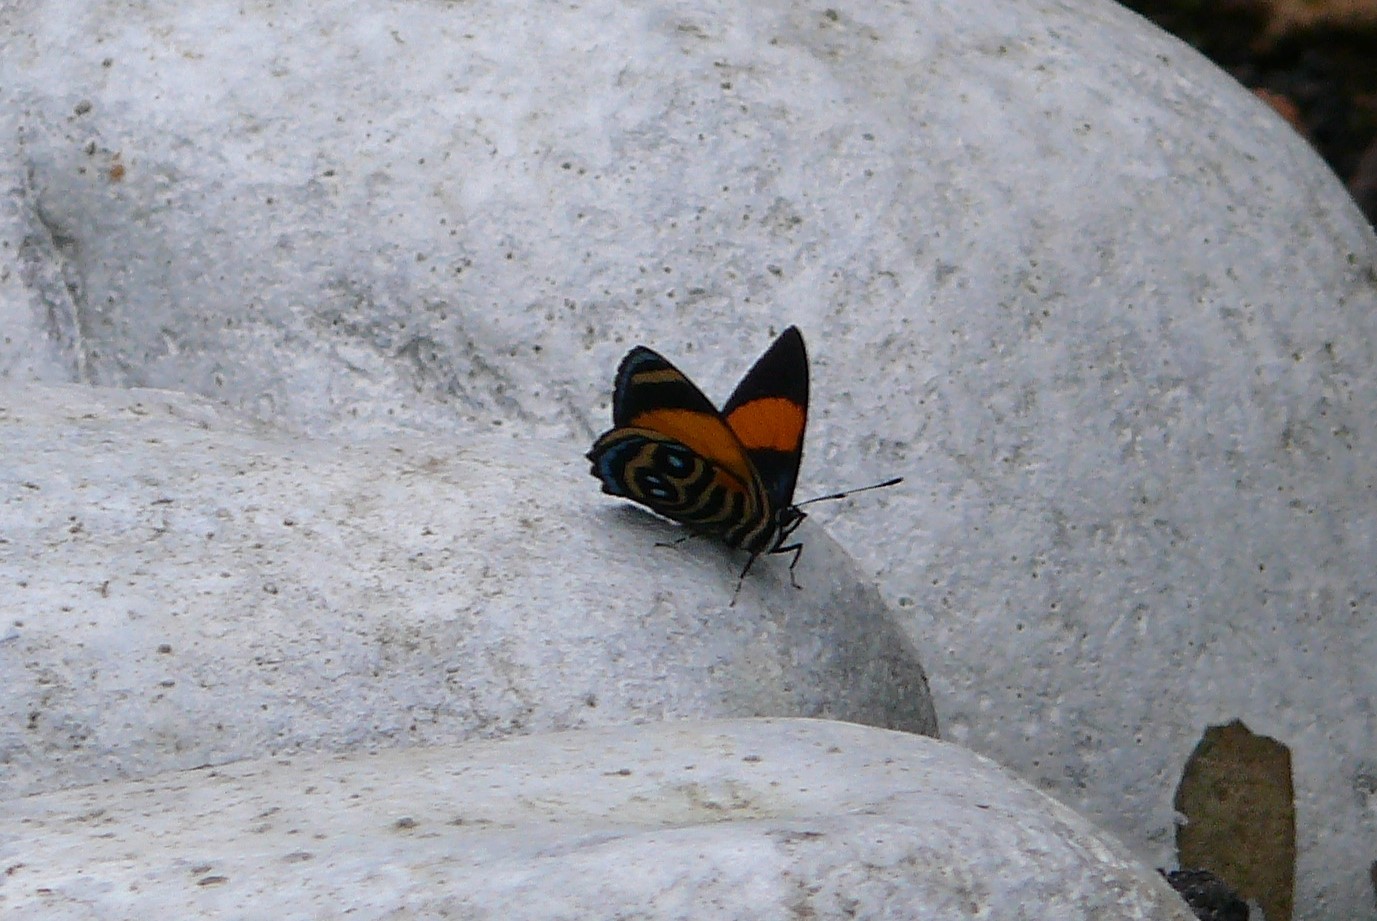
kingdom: Animalia
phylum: Arthropoda
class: Insecta
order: Lepidoptera
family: Nymphalidae
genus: Catagramma
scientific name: Catagramma tolima
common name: Blue-and-orange eighty-eight
